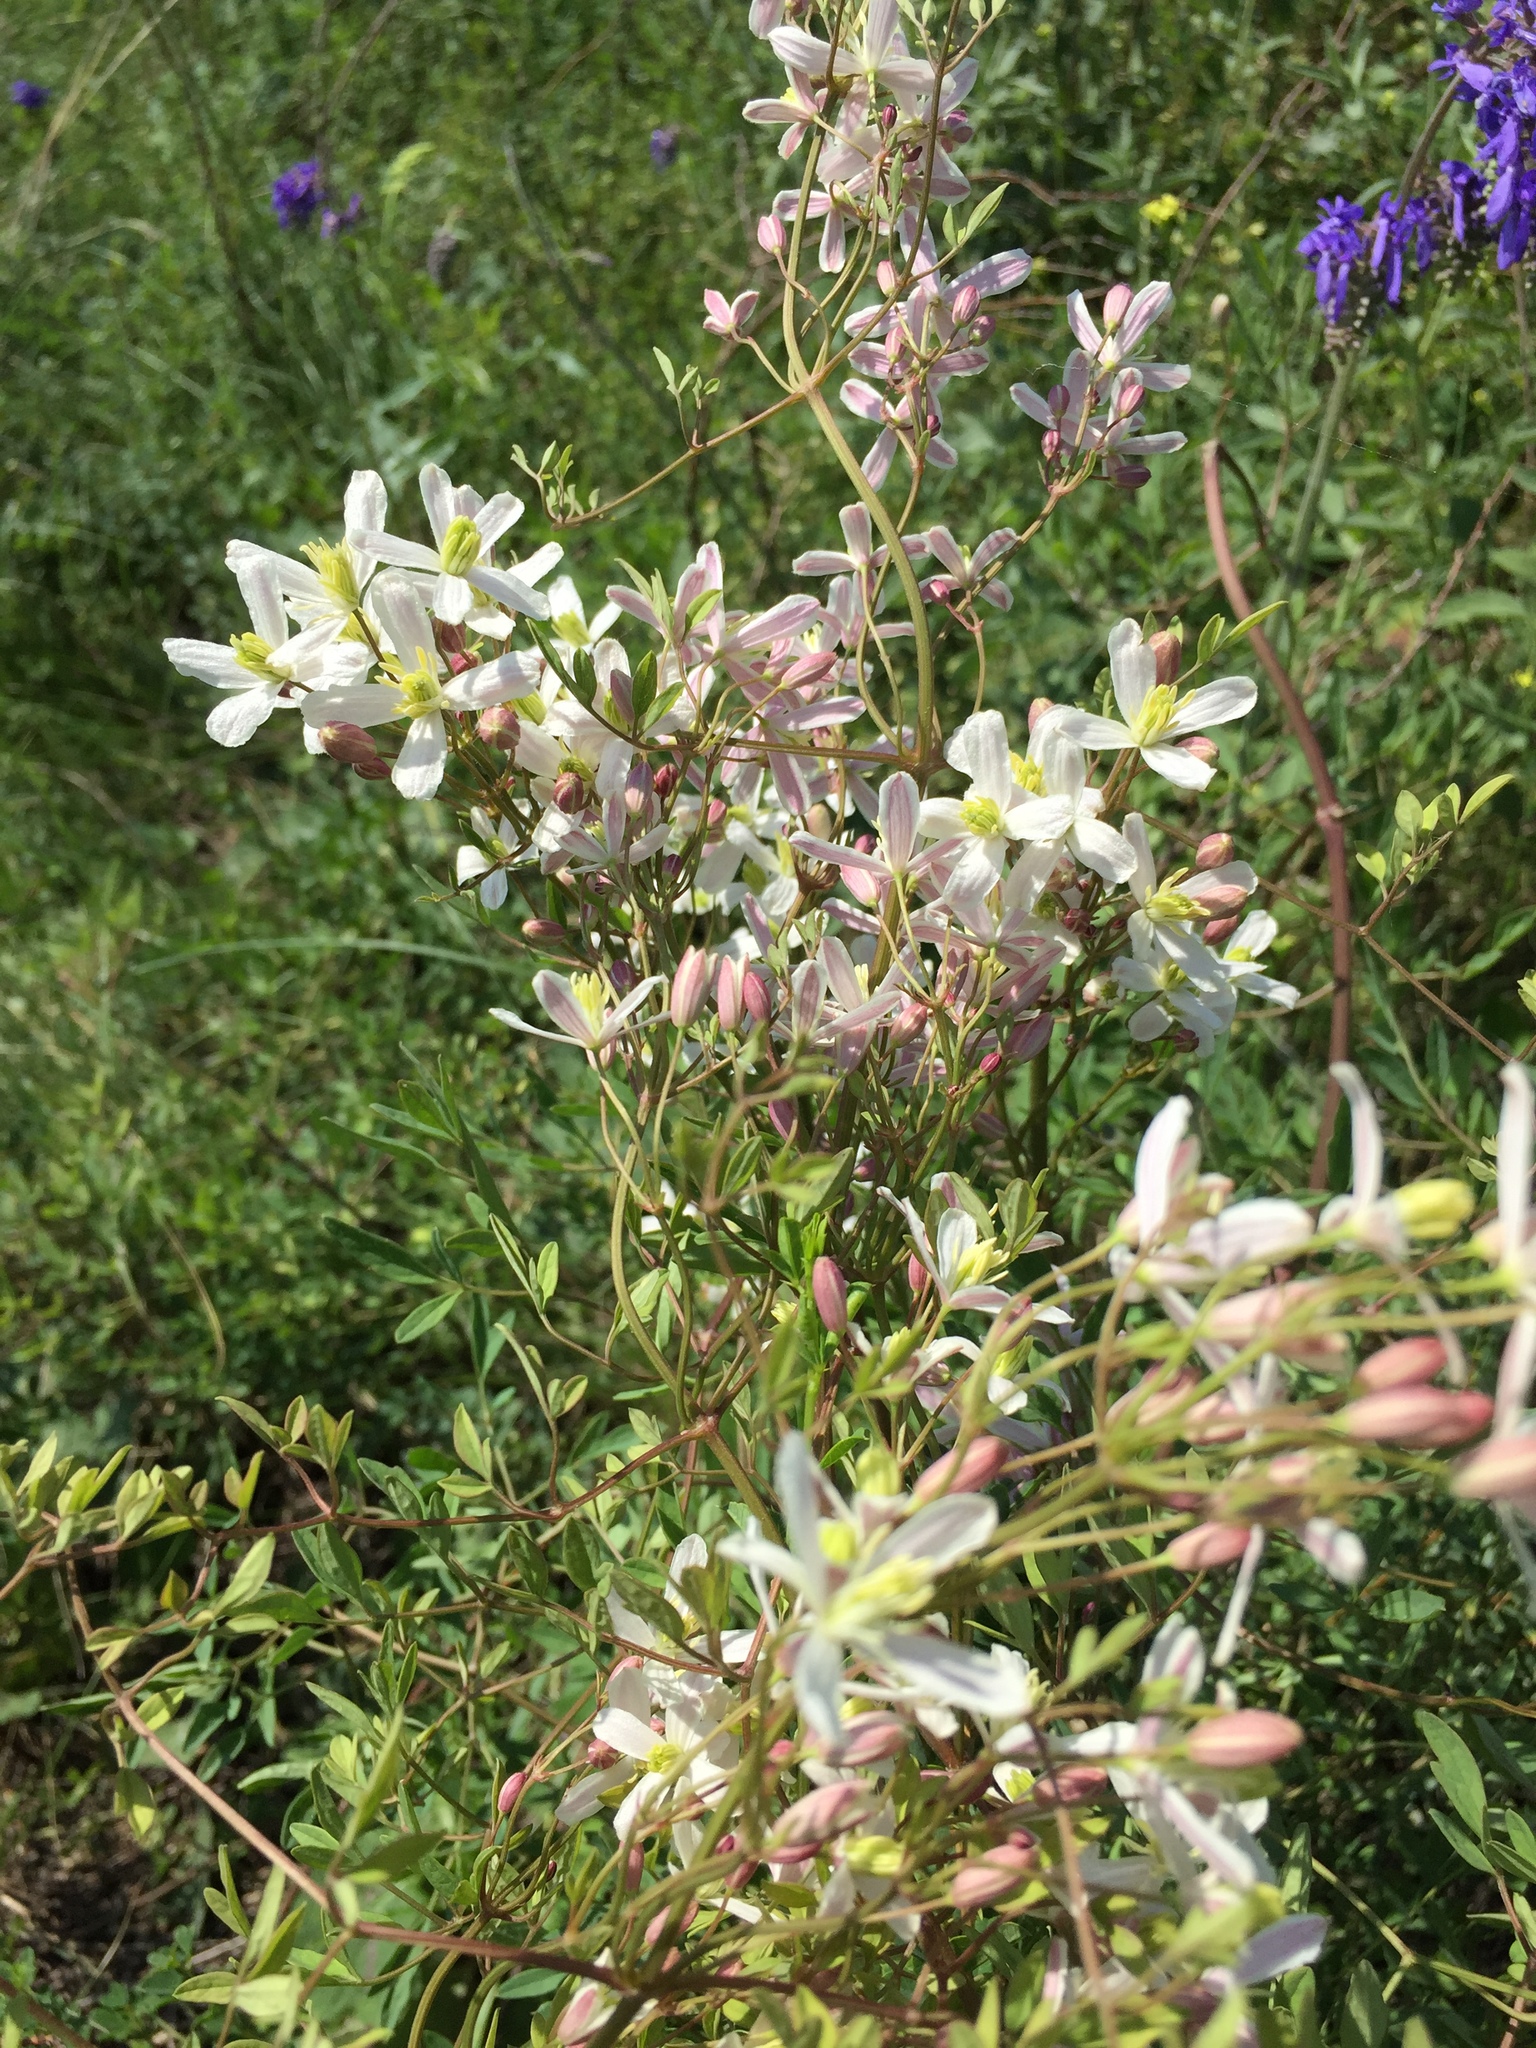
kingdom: Plantae
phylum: Tracheophyta
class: Magnoliopsida
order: Ranunculales
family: Ranunculaceae
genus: Clematis
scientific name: Clematis lathyrifolia
